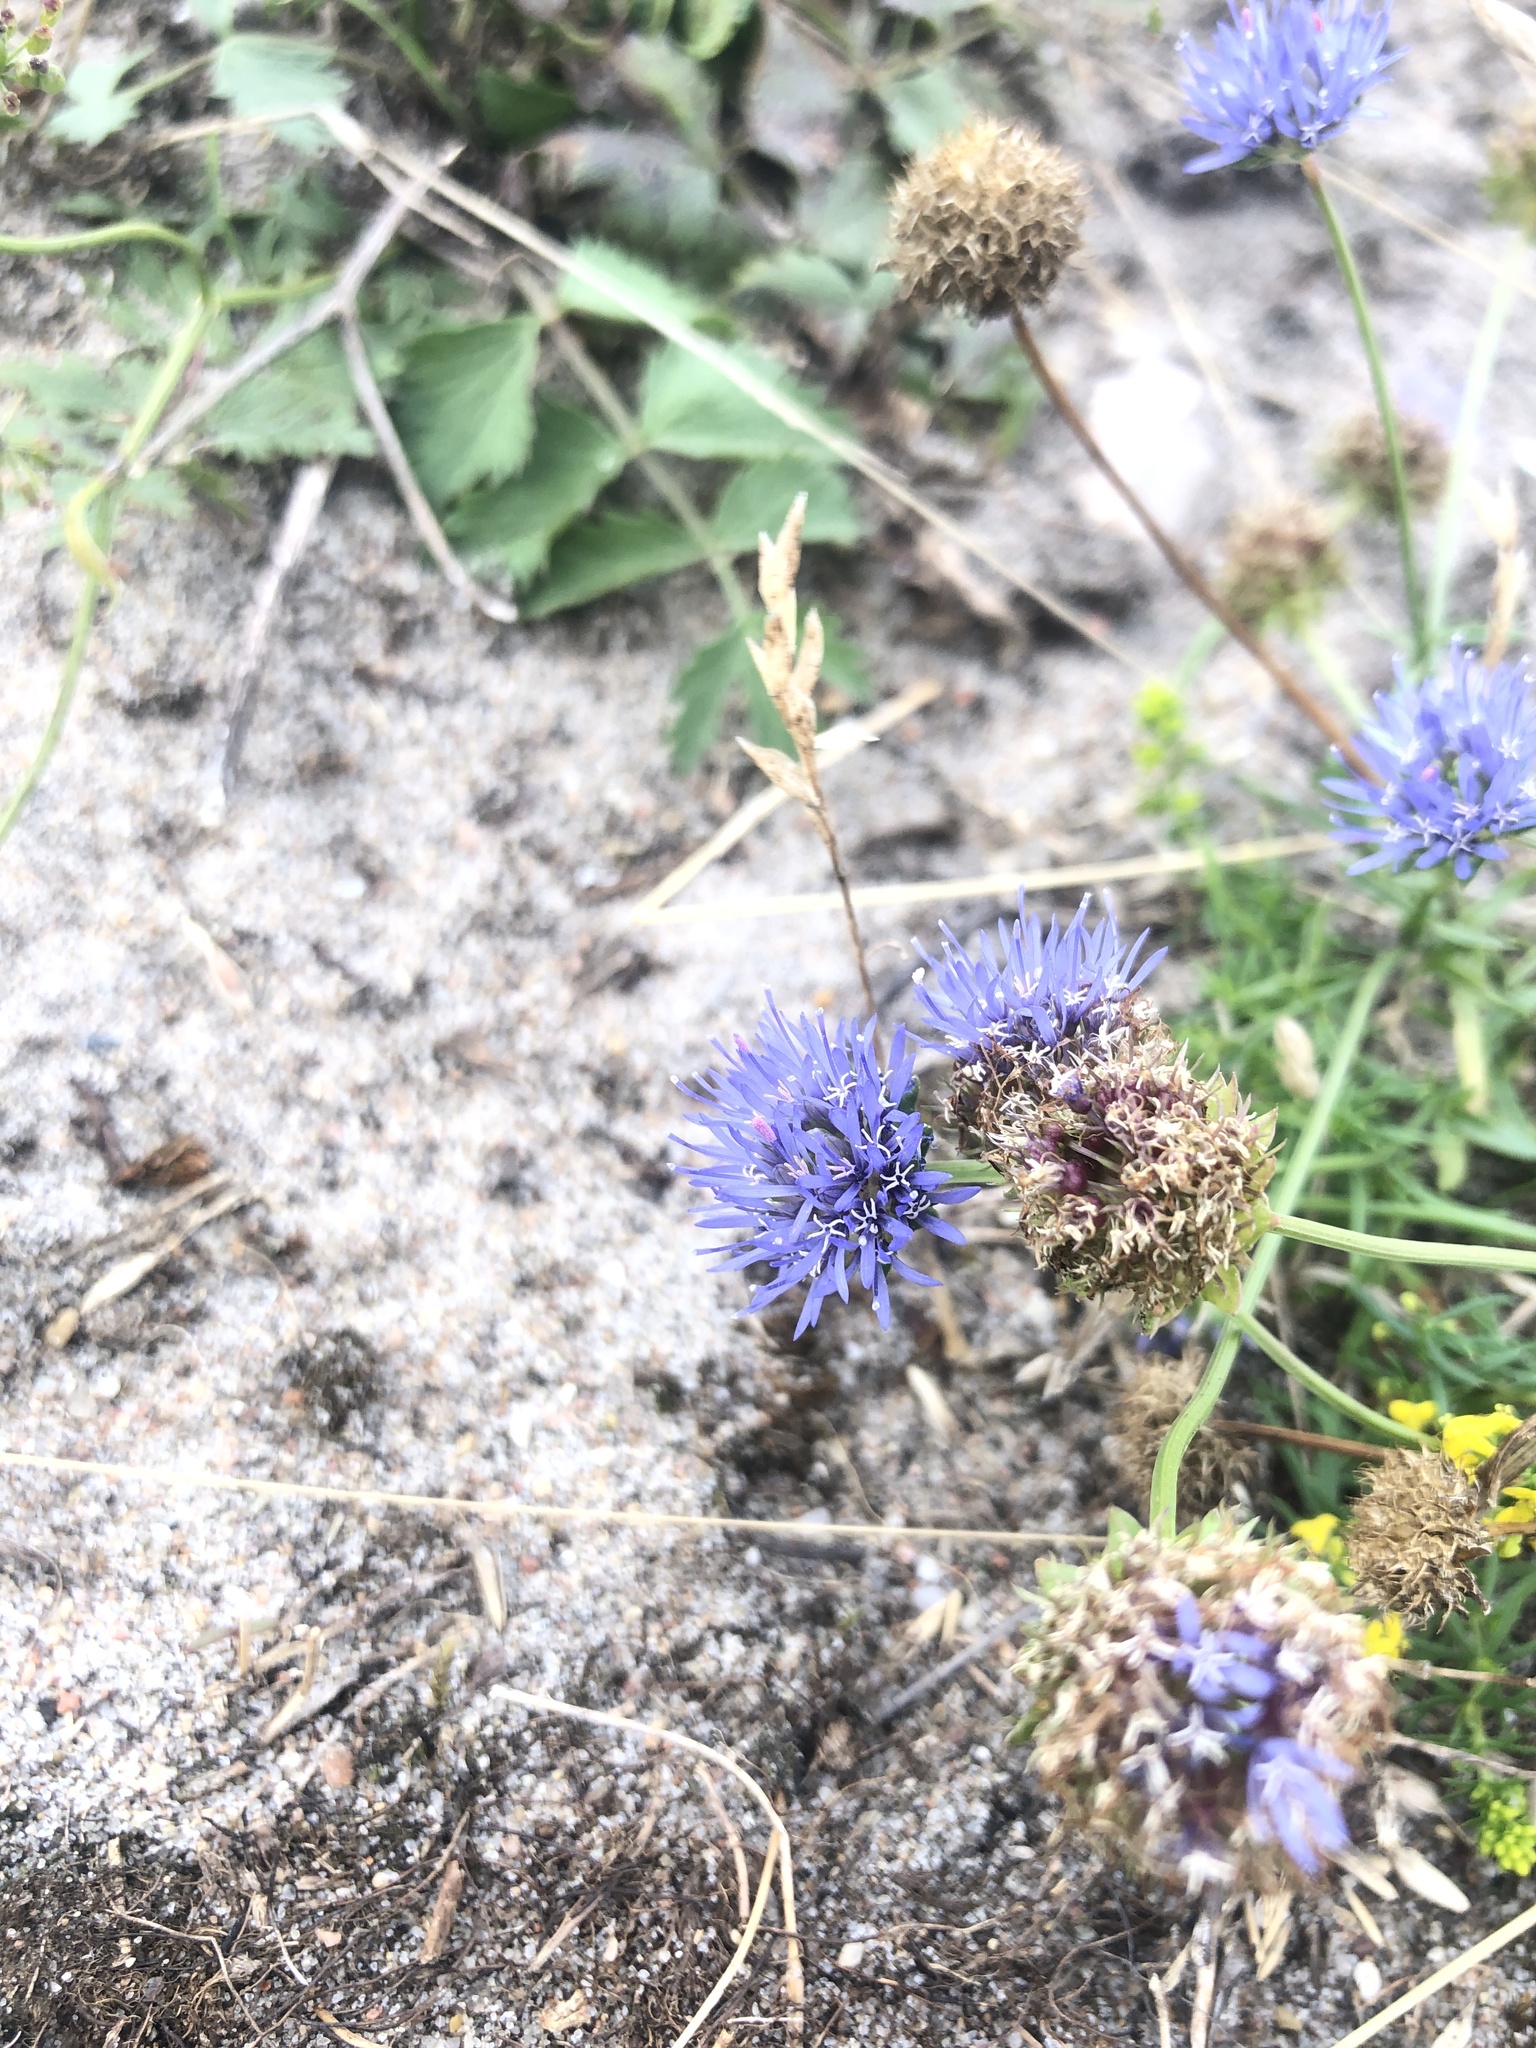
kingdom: Plantae
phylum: Tracheophyta
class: Magnoliopsida
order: Asterales
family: Campanulaceae
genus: Jasione
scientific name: Jasione montana
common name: Sheep's-bit
